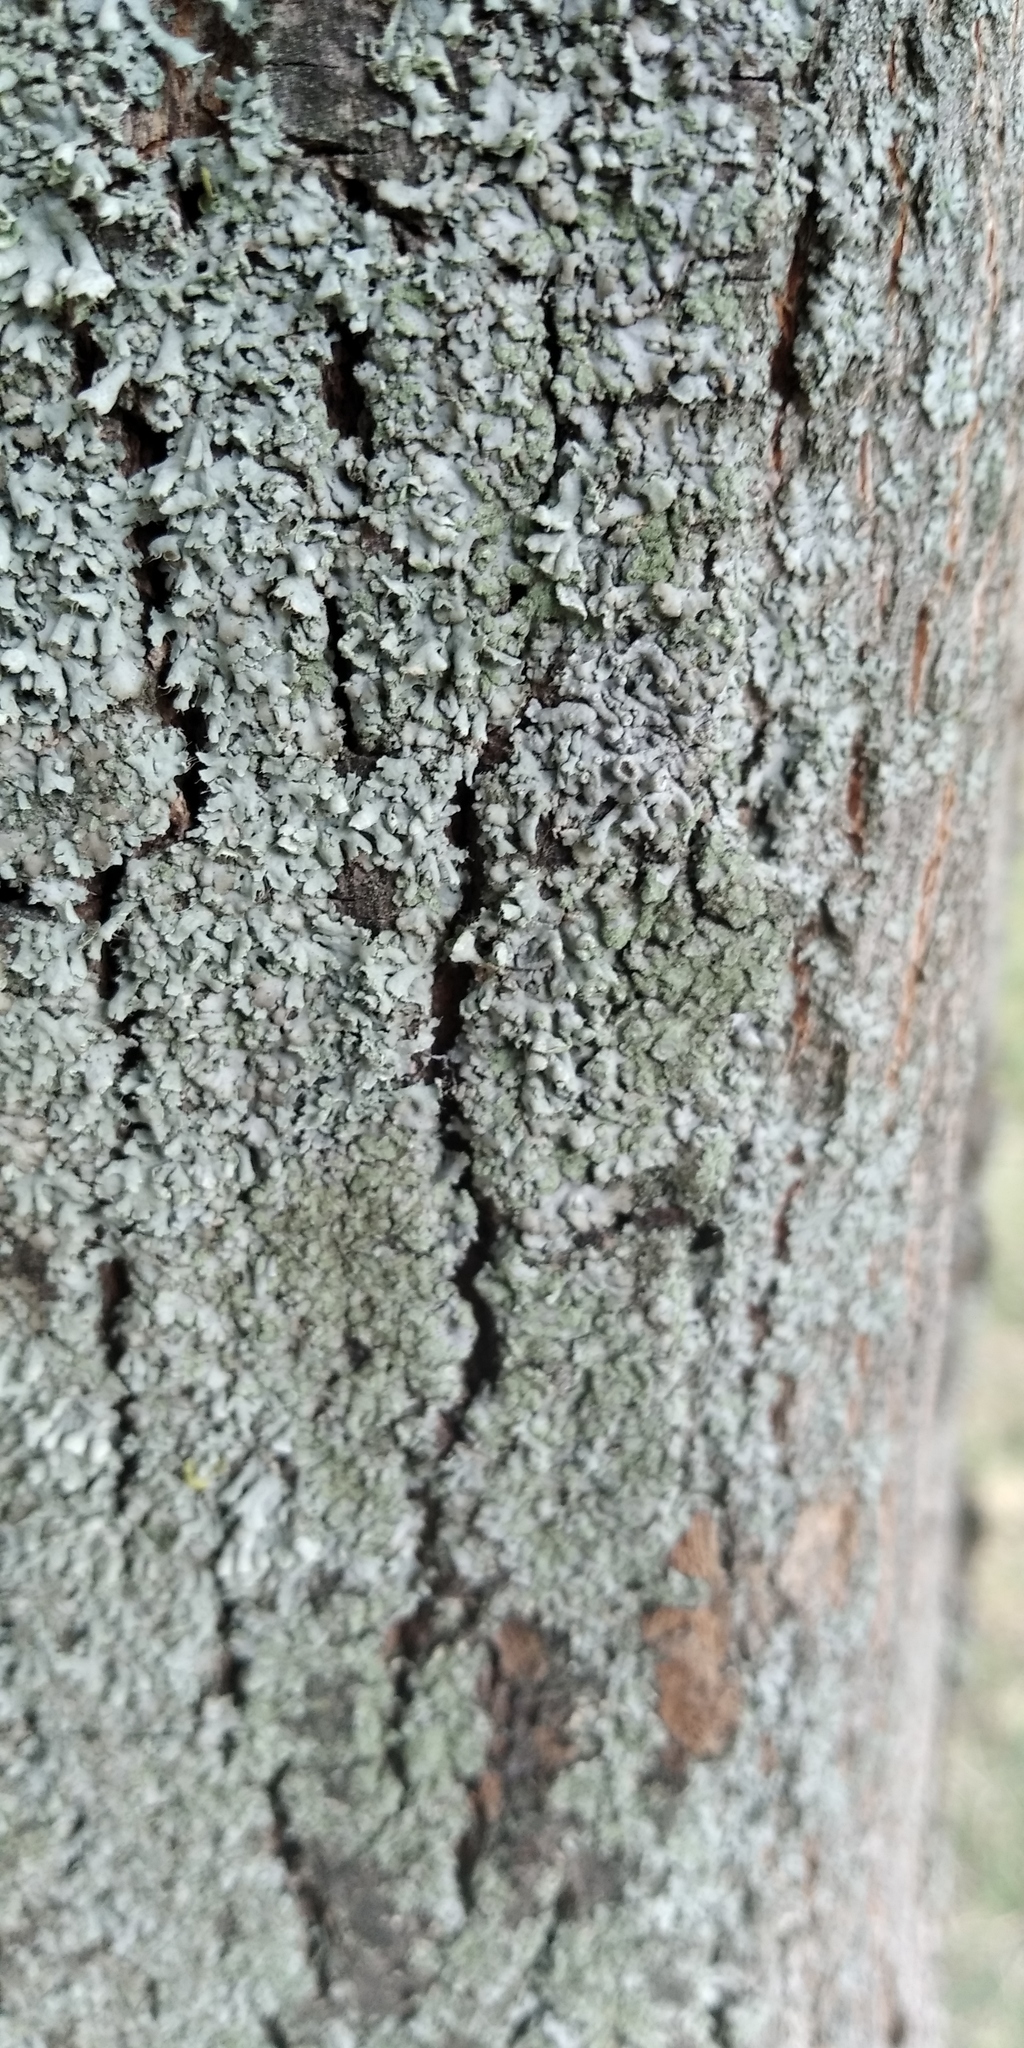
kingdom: Fungi
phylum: Ascomycota
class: Lecanoromycetes
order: Caliciales
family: Physciaceae
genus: Physcia
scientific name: Physcia stellaris
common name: Star rosette lichen
